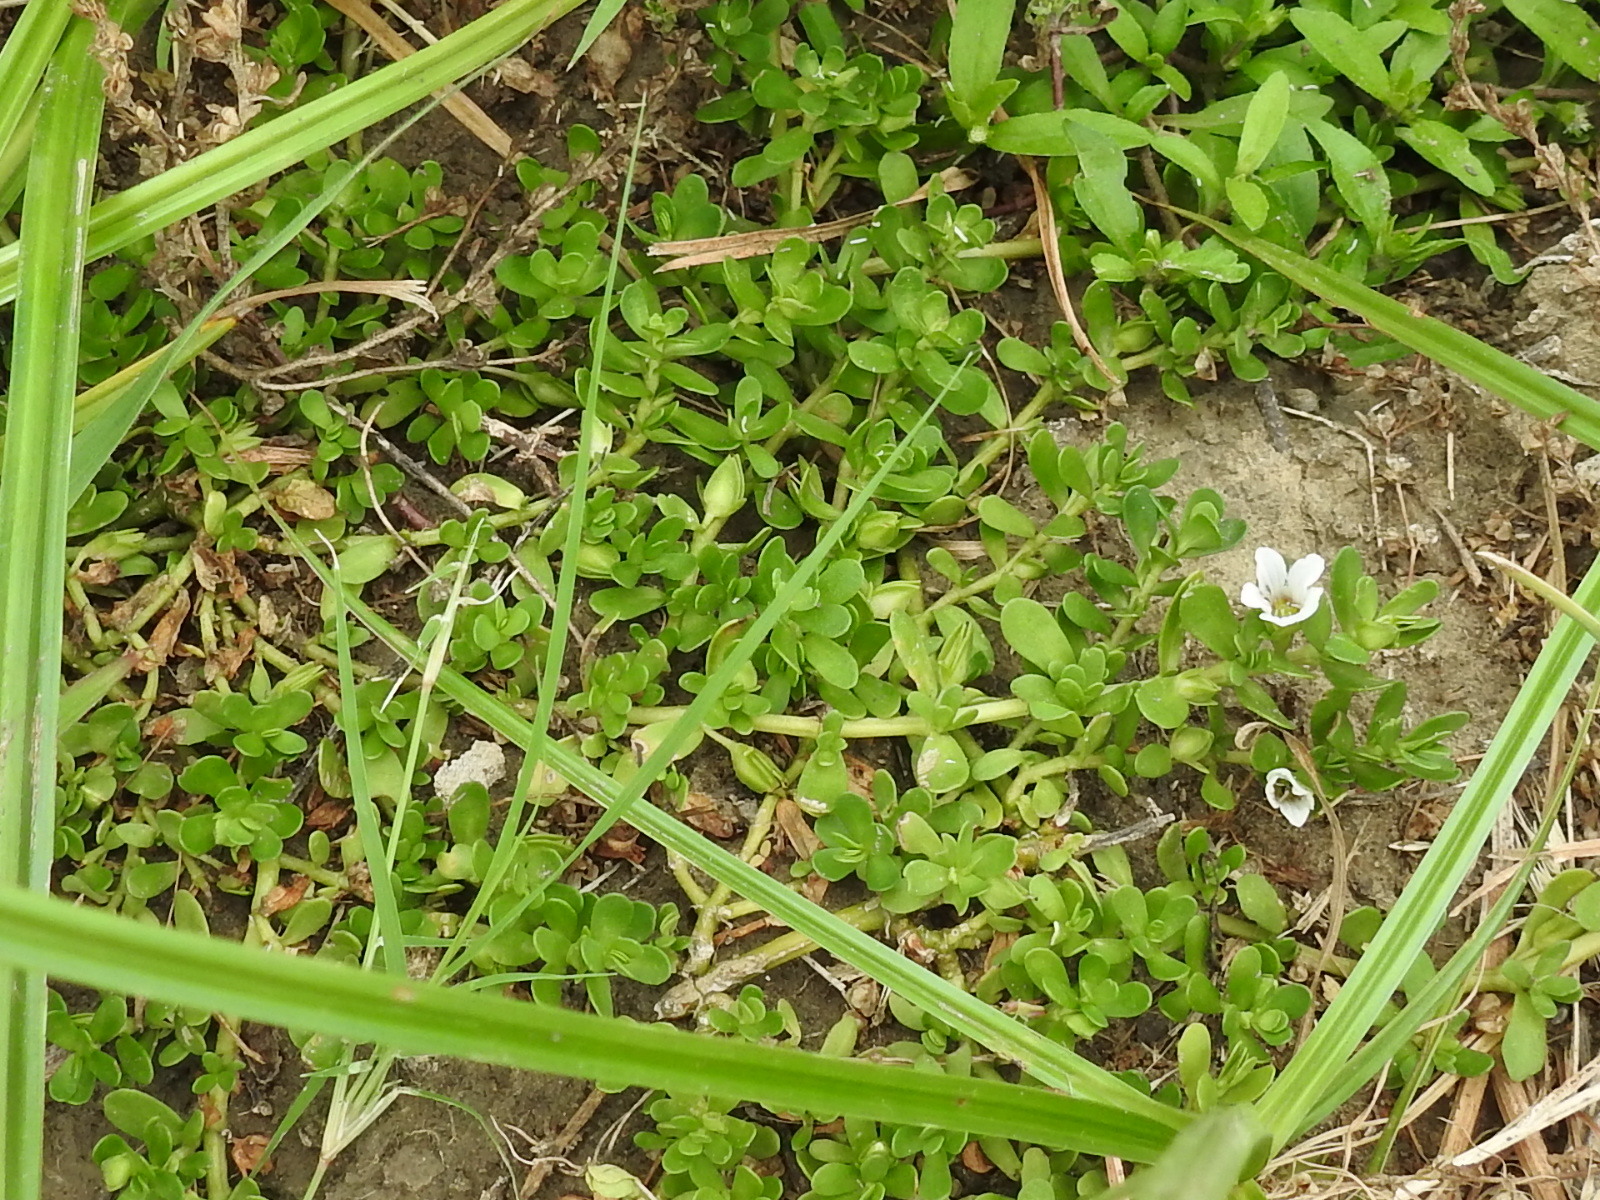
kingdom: Plantae
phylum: Tracheophyta
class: Magnoliopsida
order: Lamiales
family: Plantaginaceae
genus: Bacopa
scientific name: Bacopa monnieri
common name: Indian-pennywort
